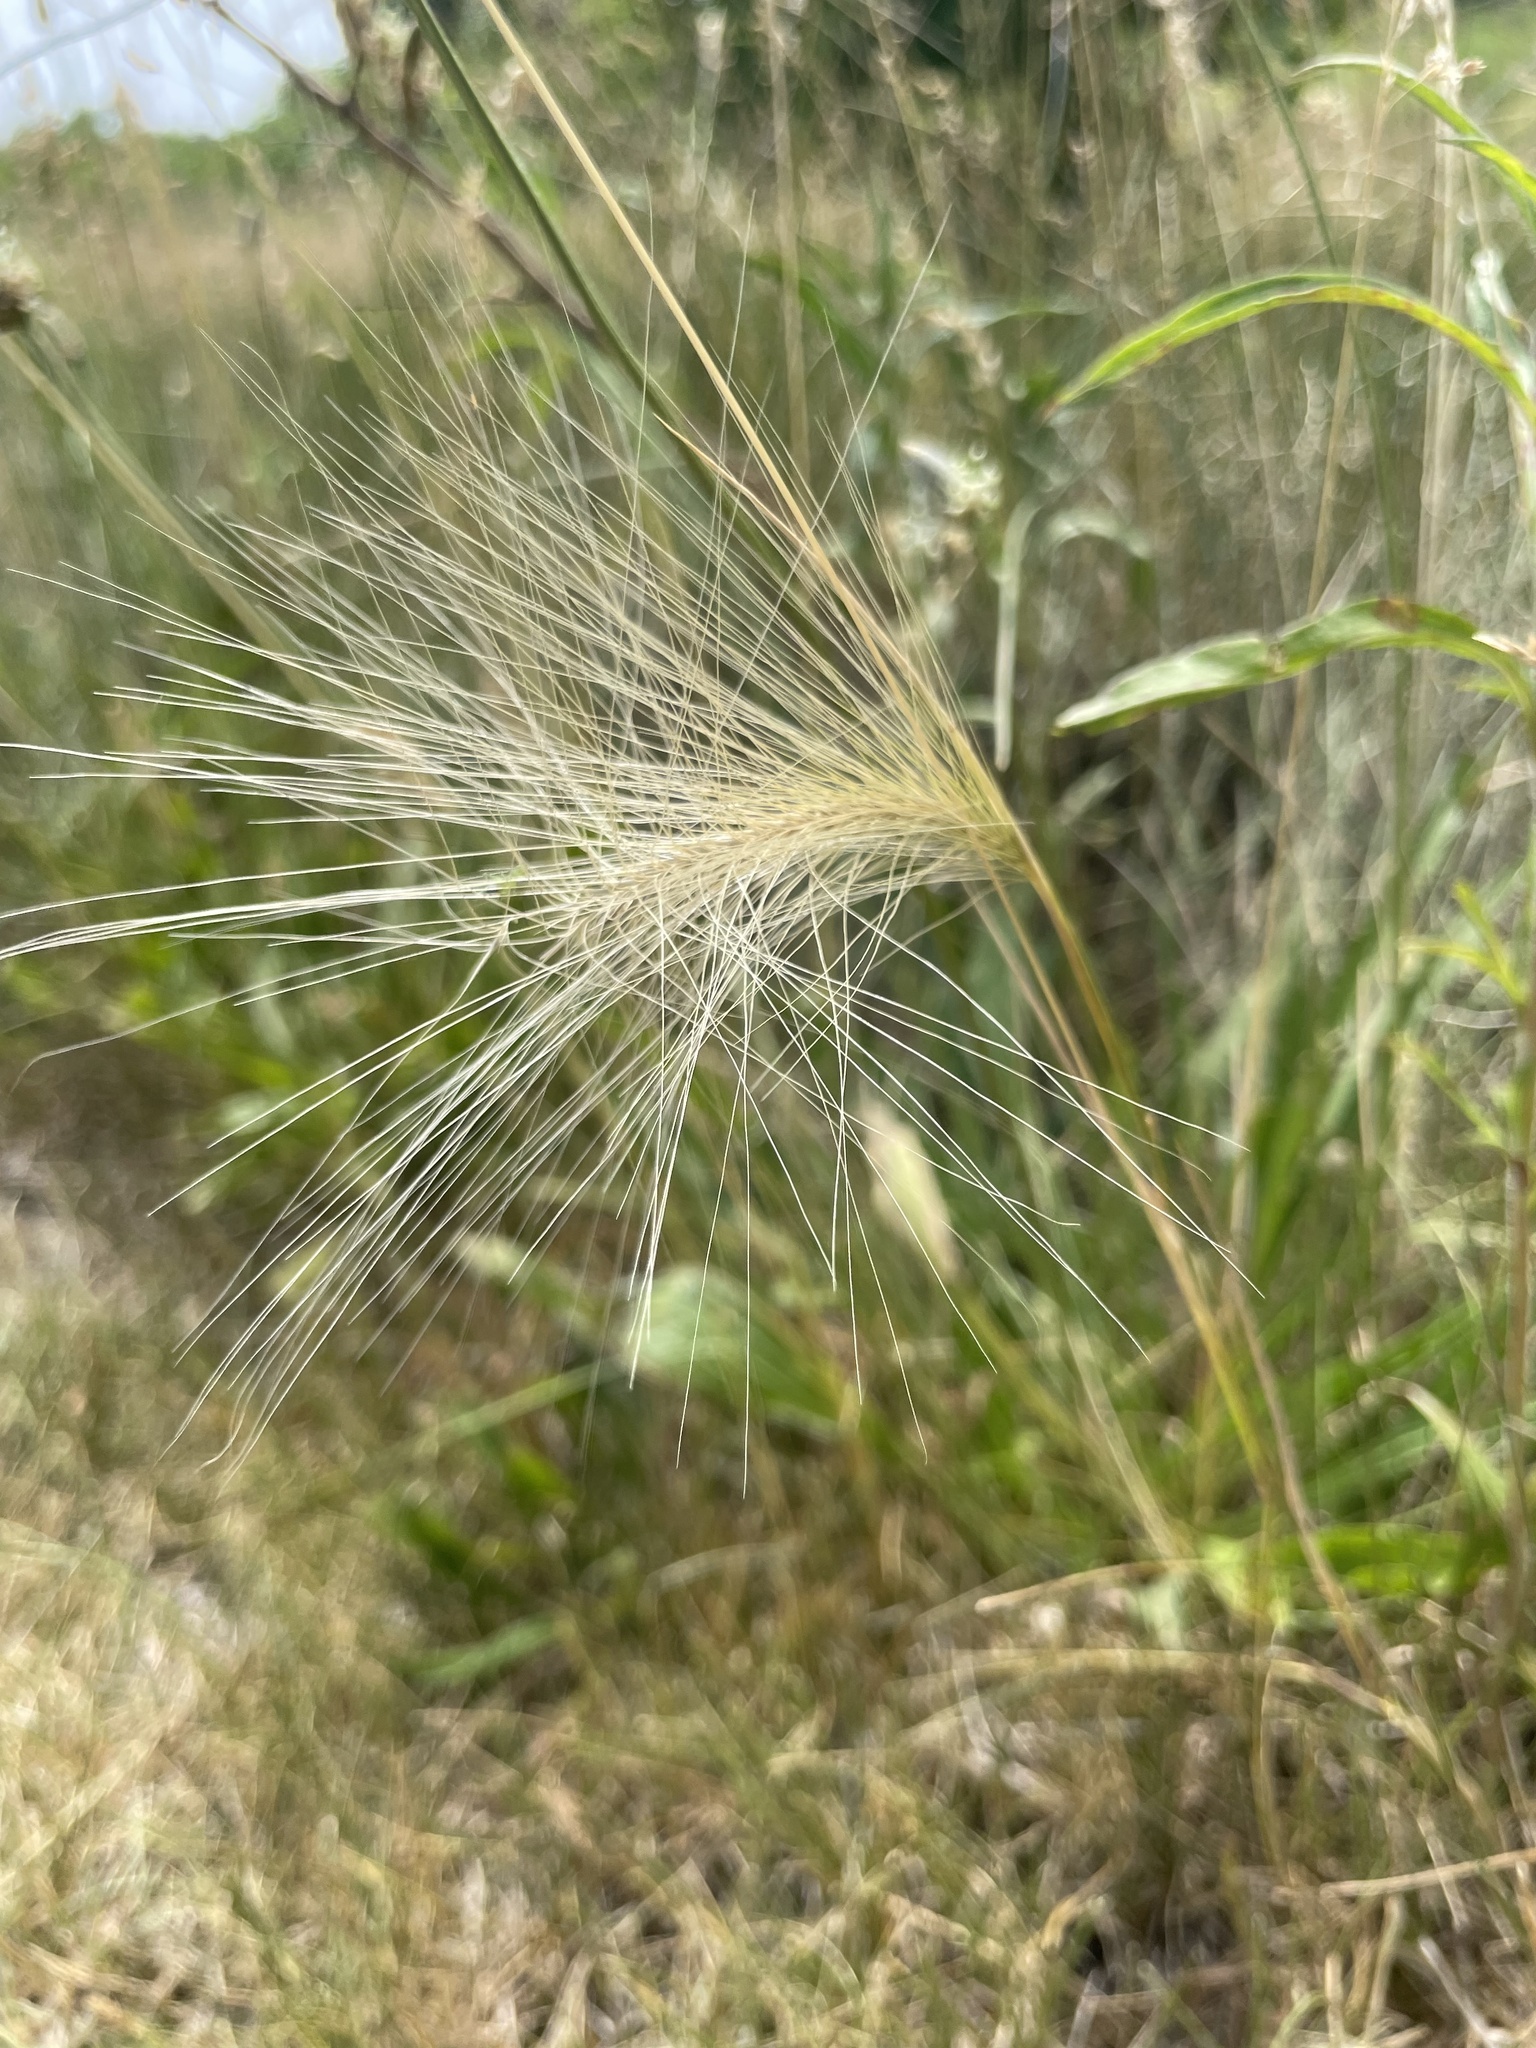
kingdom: Plantae
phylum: Tracheophyta
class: Liliopsida
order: Poales
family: Poaceae
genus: Hordeum
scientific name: Hordeum jubatum
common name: Foxtail barley
